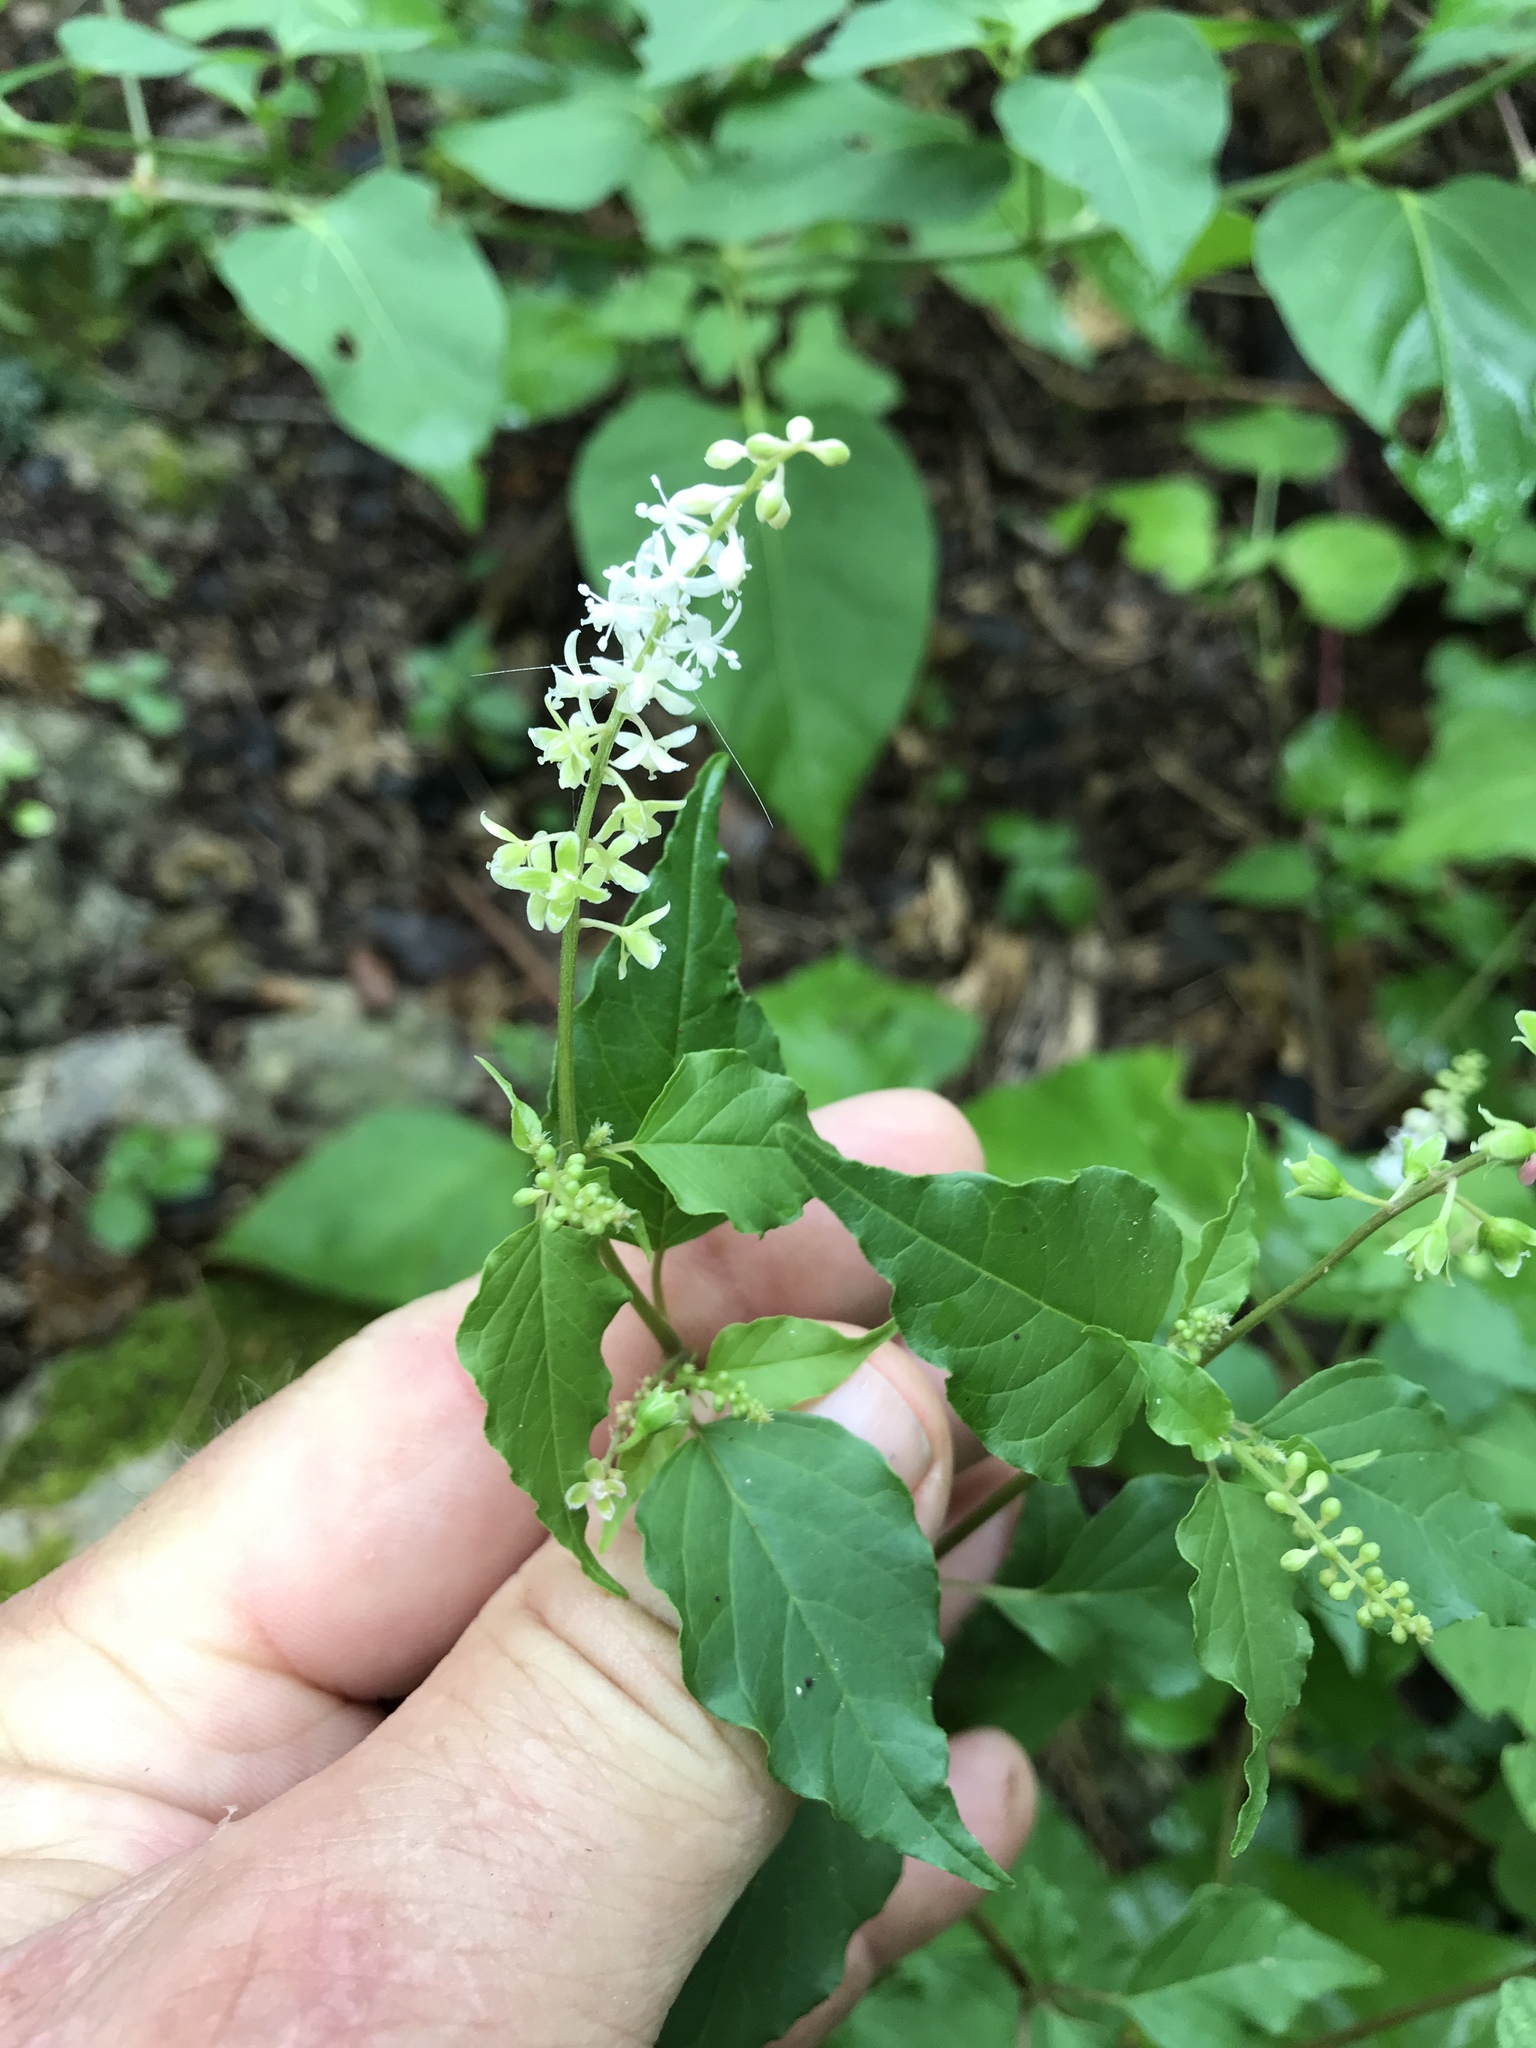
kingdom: Plantae
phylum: Tracheophyta
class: Magnoliopsida
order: Caryophyllales
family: Phytolaccaceae
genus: Rivina
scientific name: Rivina humilis
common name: Rougeplant
